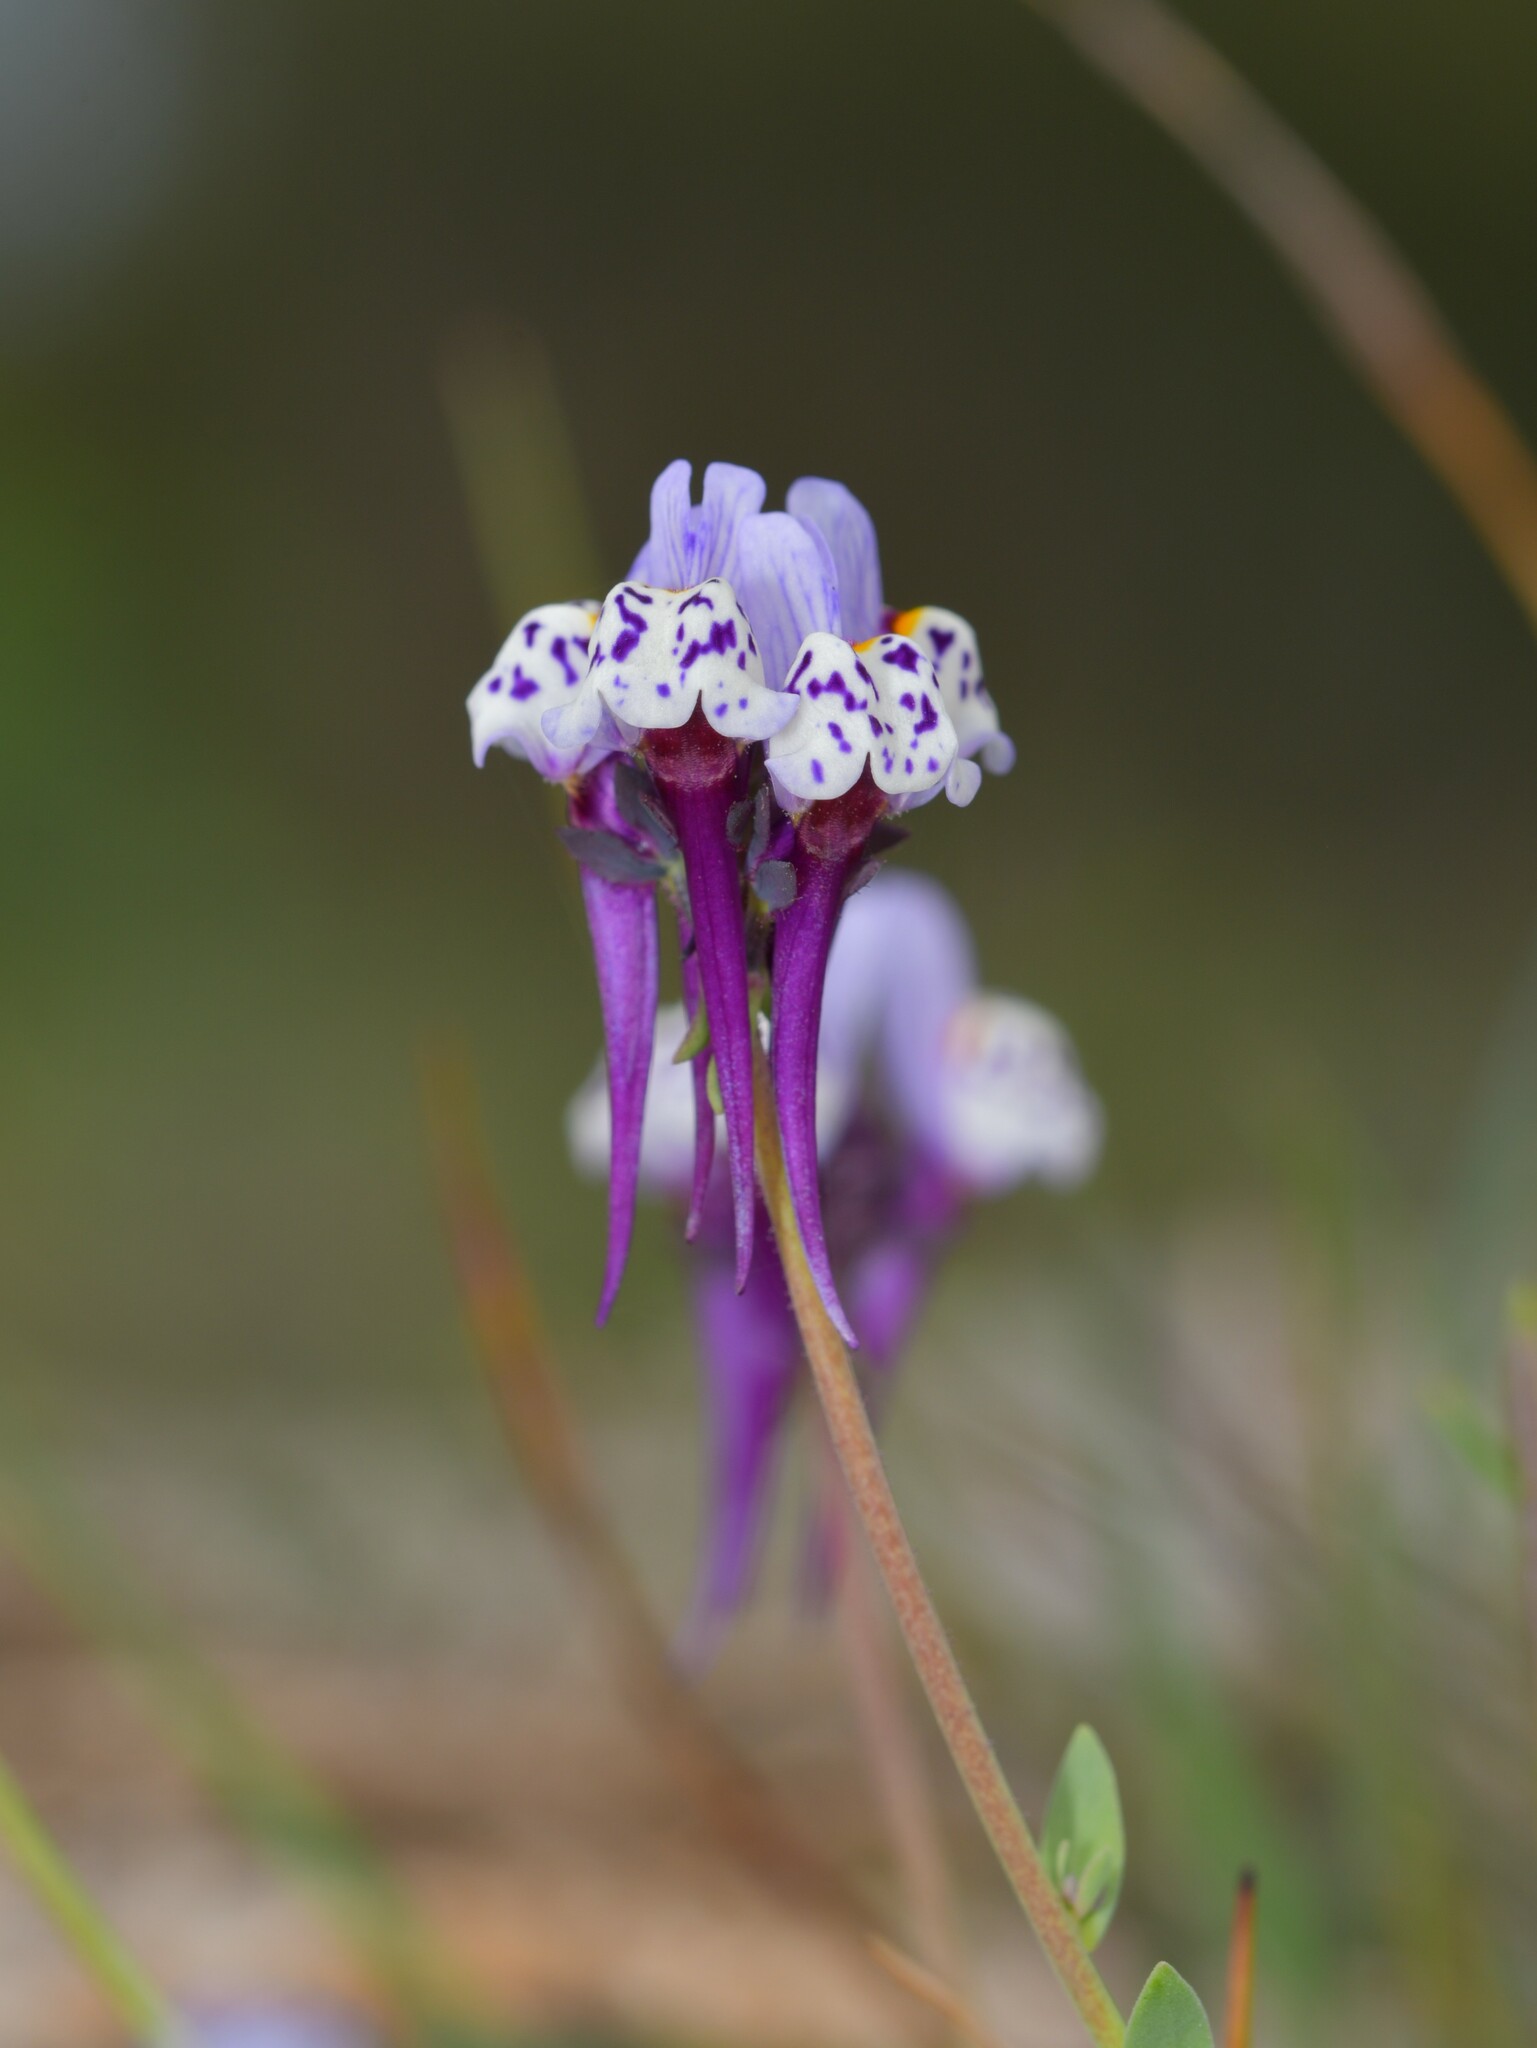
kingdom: Plantae
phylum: Tracheophyta
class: Magnoliopsida
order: Lamiales
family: Plantaginaceae
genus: Linaria
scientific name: Linaria amethystea
